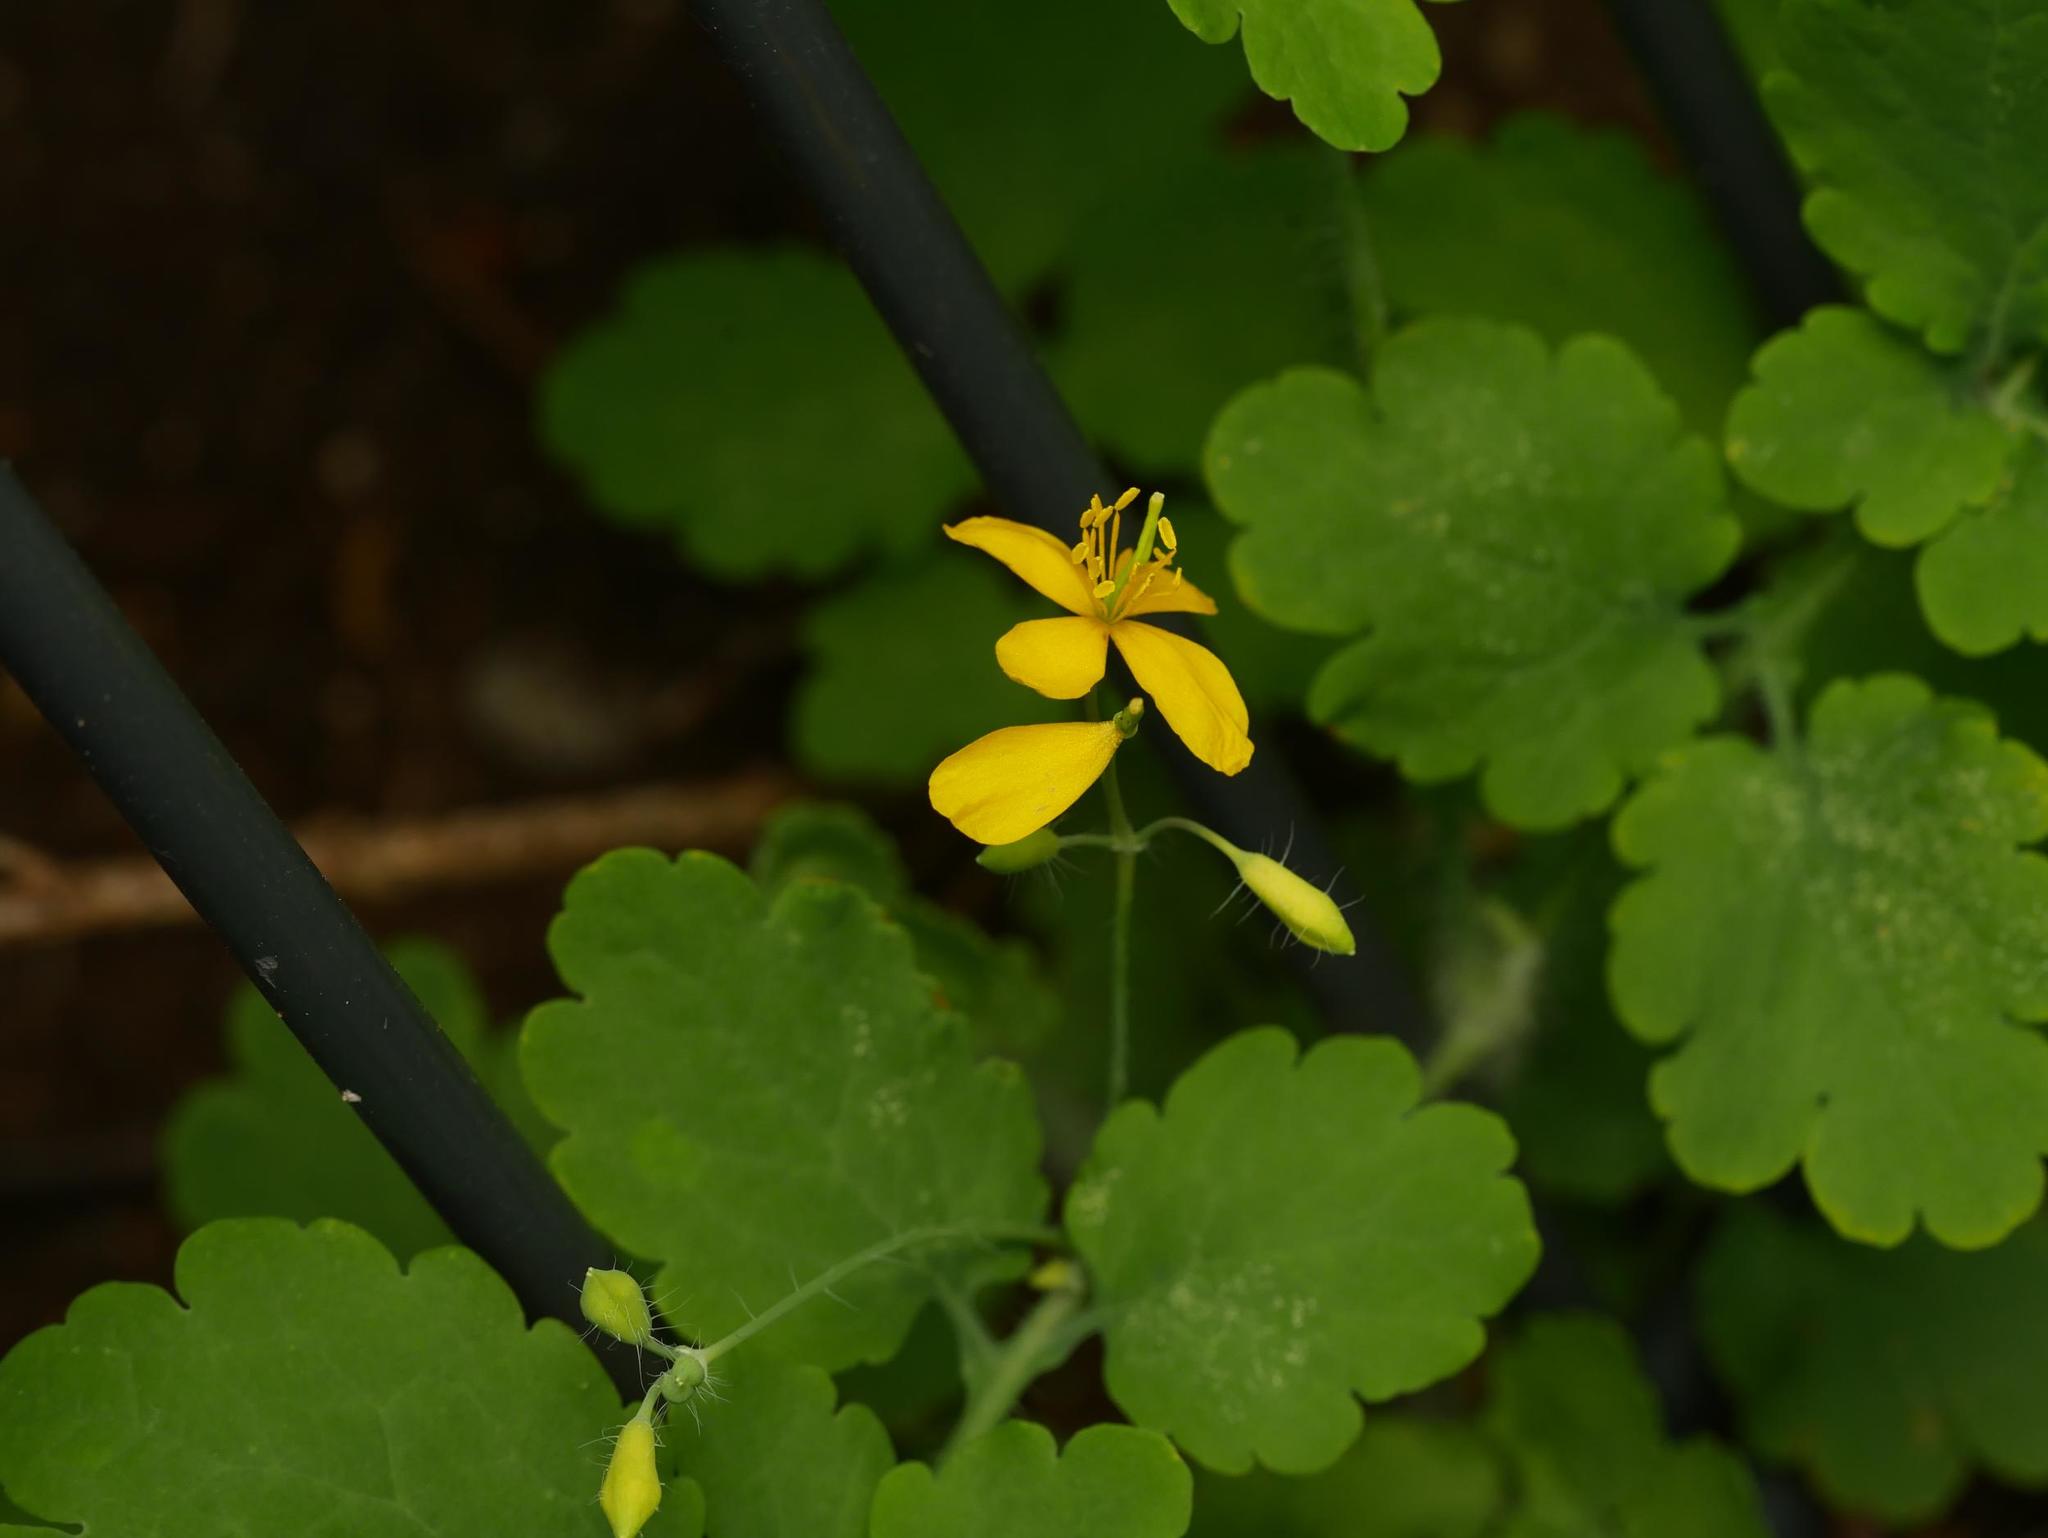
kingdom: Plantae
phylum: Tracheophyta
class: Magnoliopsida
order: Ranunculales
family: Papaveraceae
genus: Chelidonium
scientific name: Chelidonium majus
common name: Greater celandine
